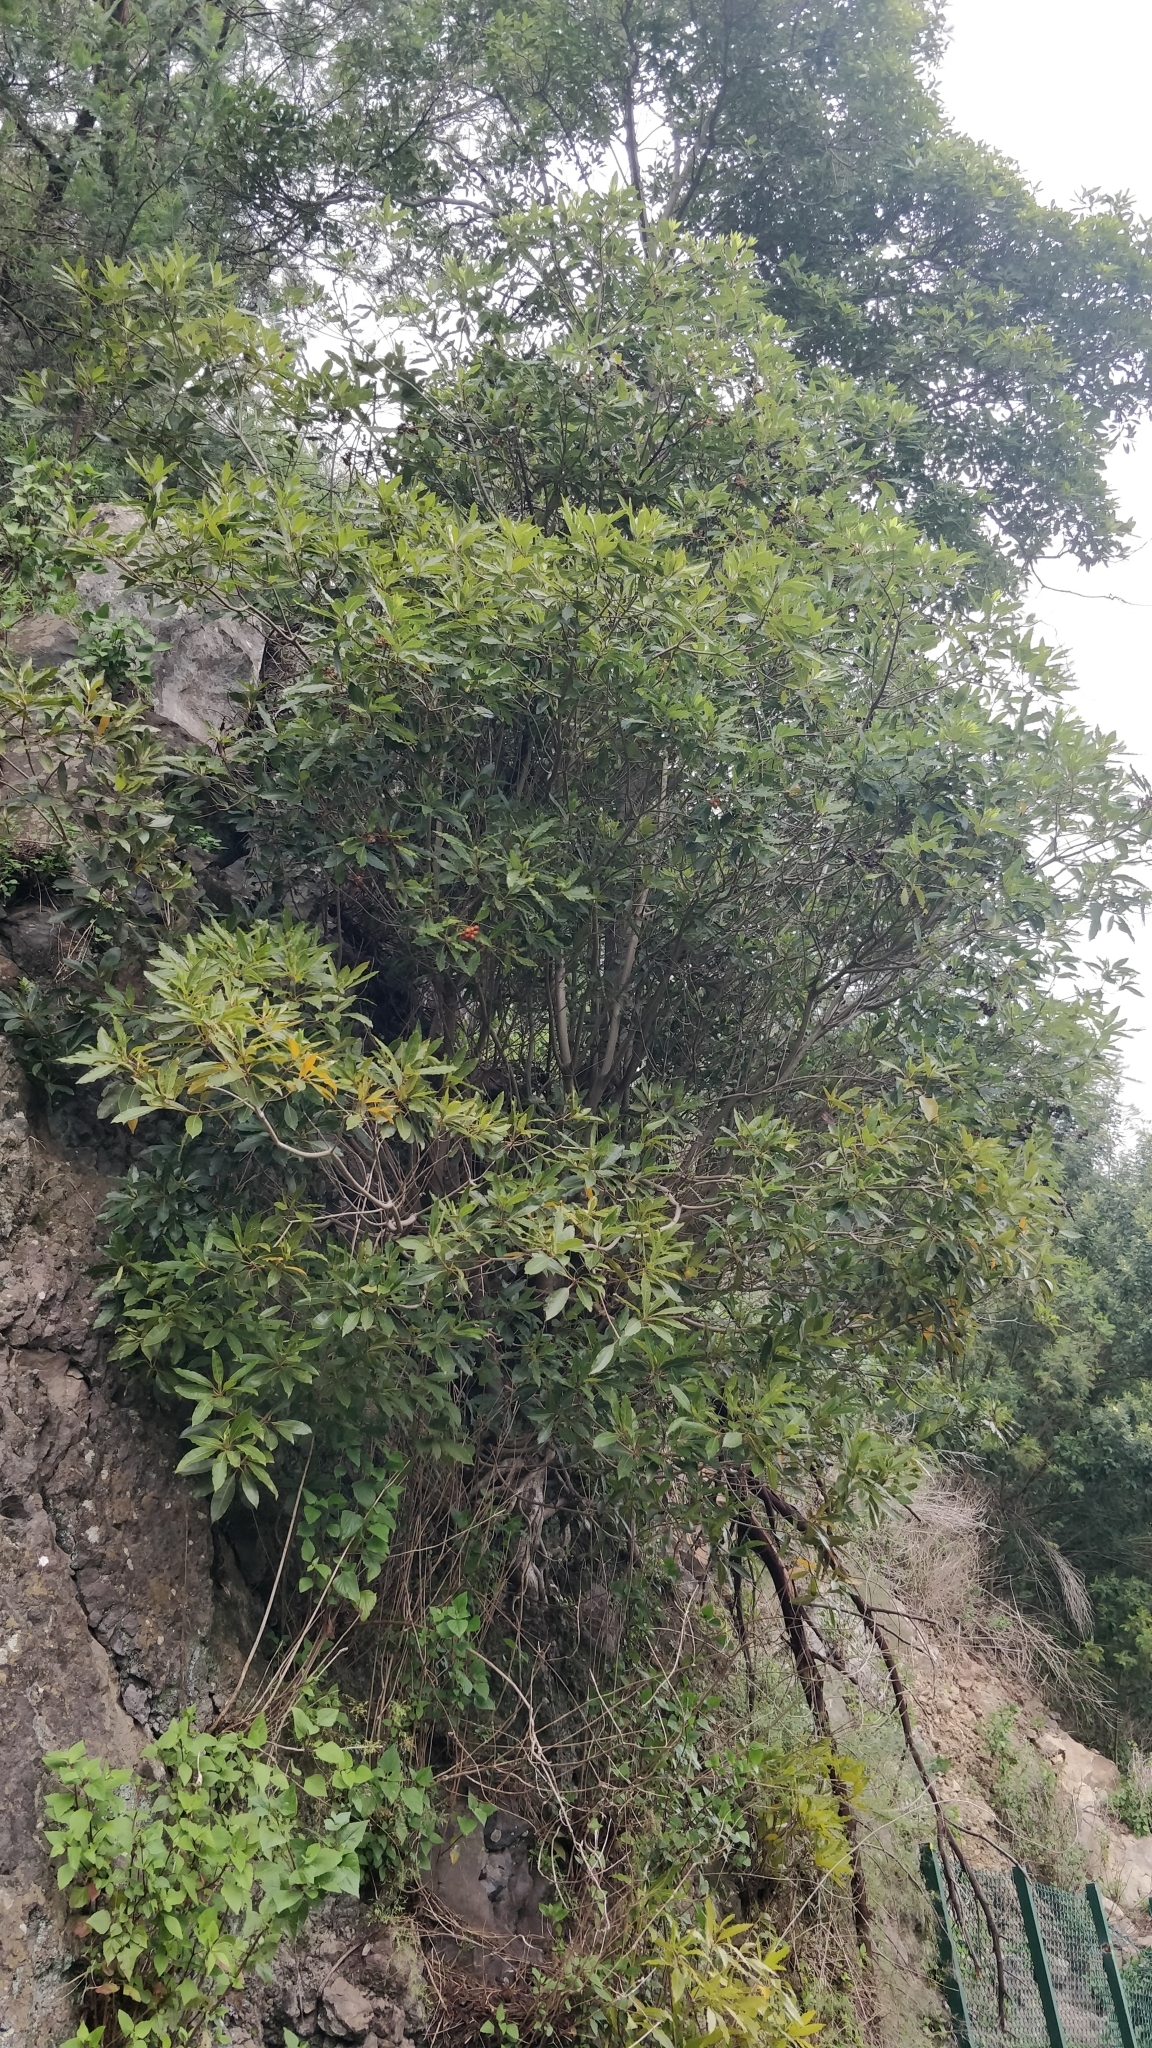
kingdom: Plantae
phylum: Tracheophyta
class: Magnoliopsida
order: Apiales
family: Pittosporaceae
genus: Pittosporum
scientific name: Pittosporum undulatum
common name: Australian cheesewood
